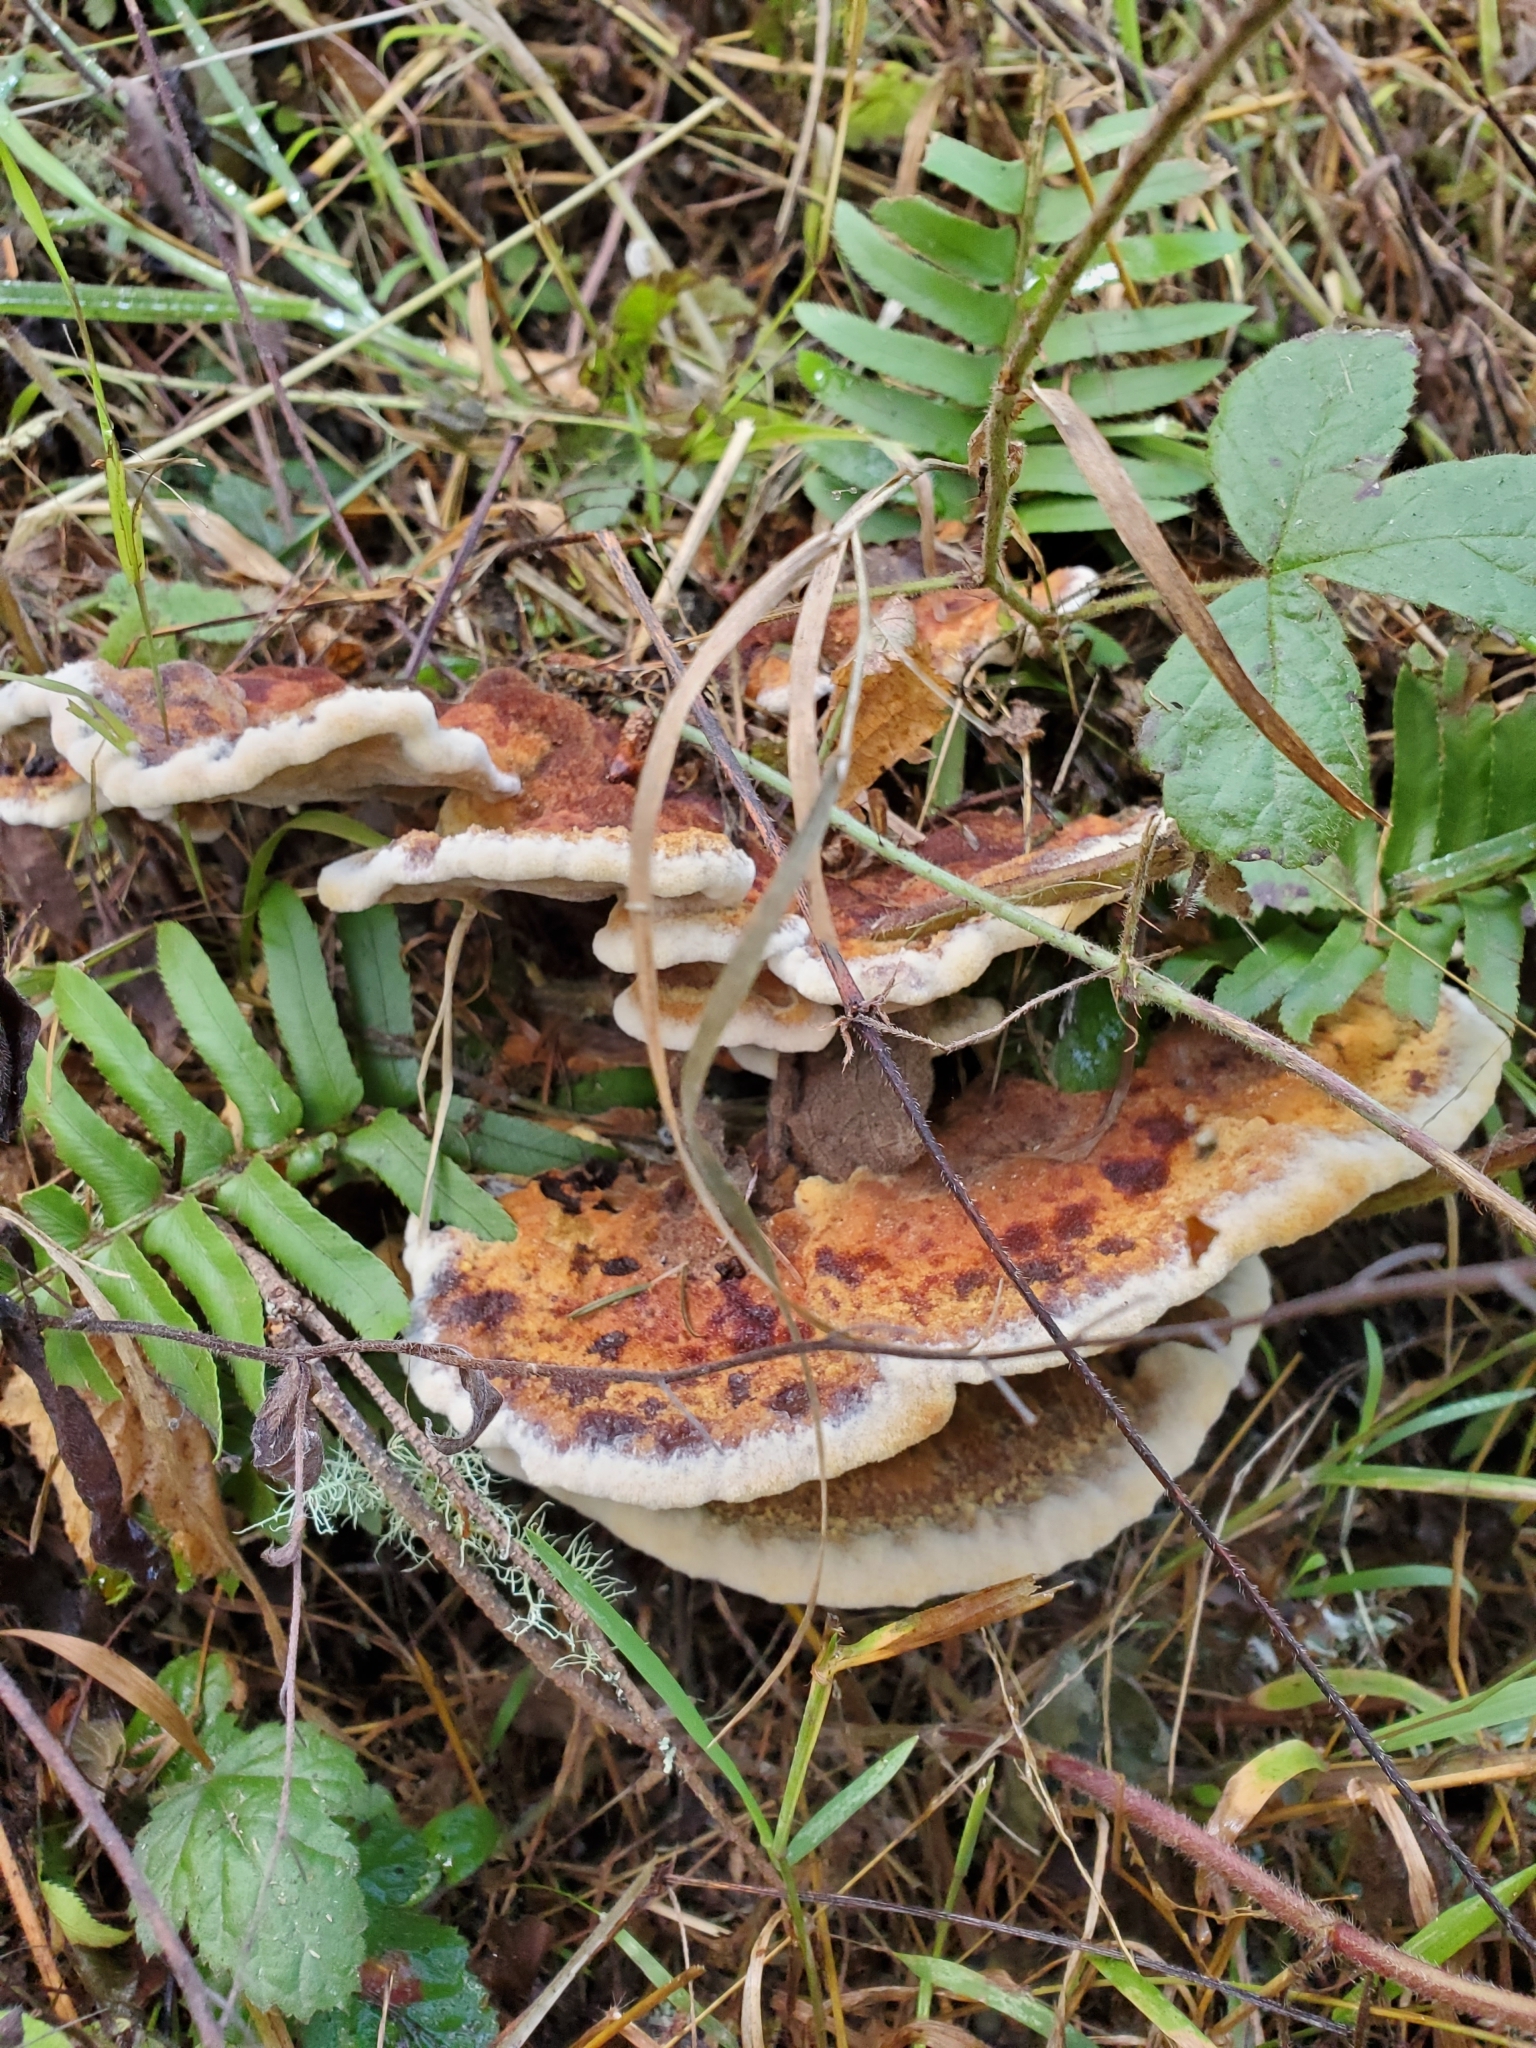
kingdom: Fungi
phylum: Basidiomycota
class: Agaricomycetes
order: Polyporales
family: Laetiporaceae
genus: Phaeolus
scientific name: Phaeolus schweinitzii
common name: Dyer's mazegill
